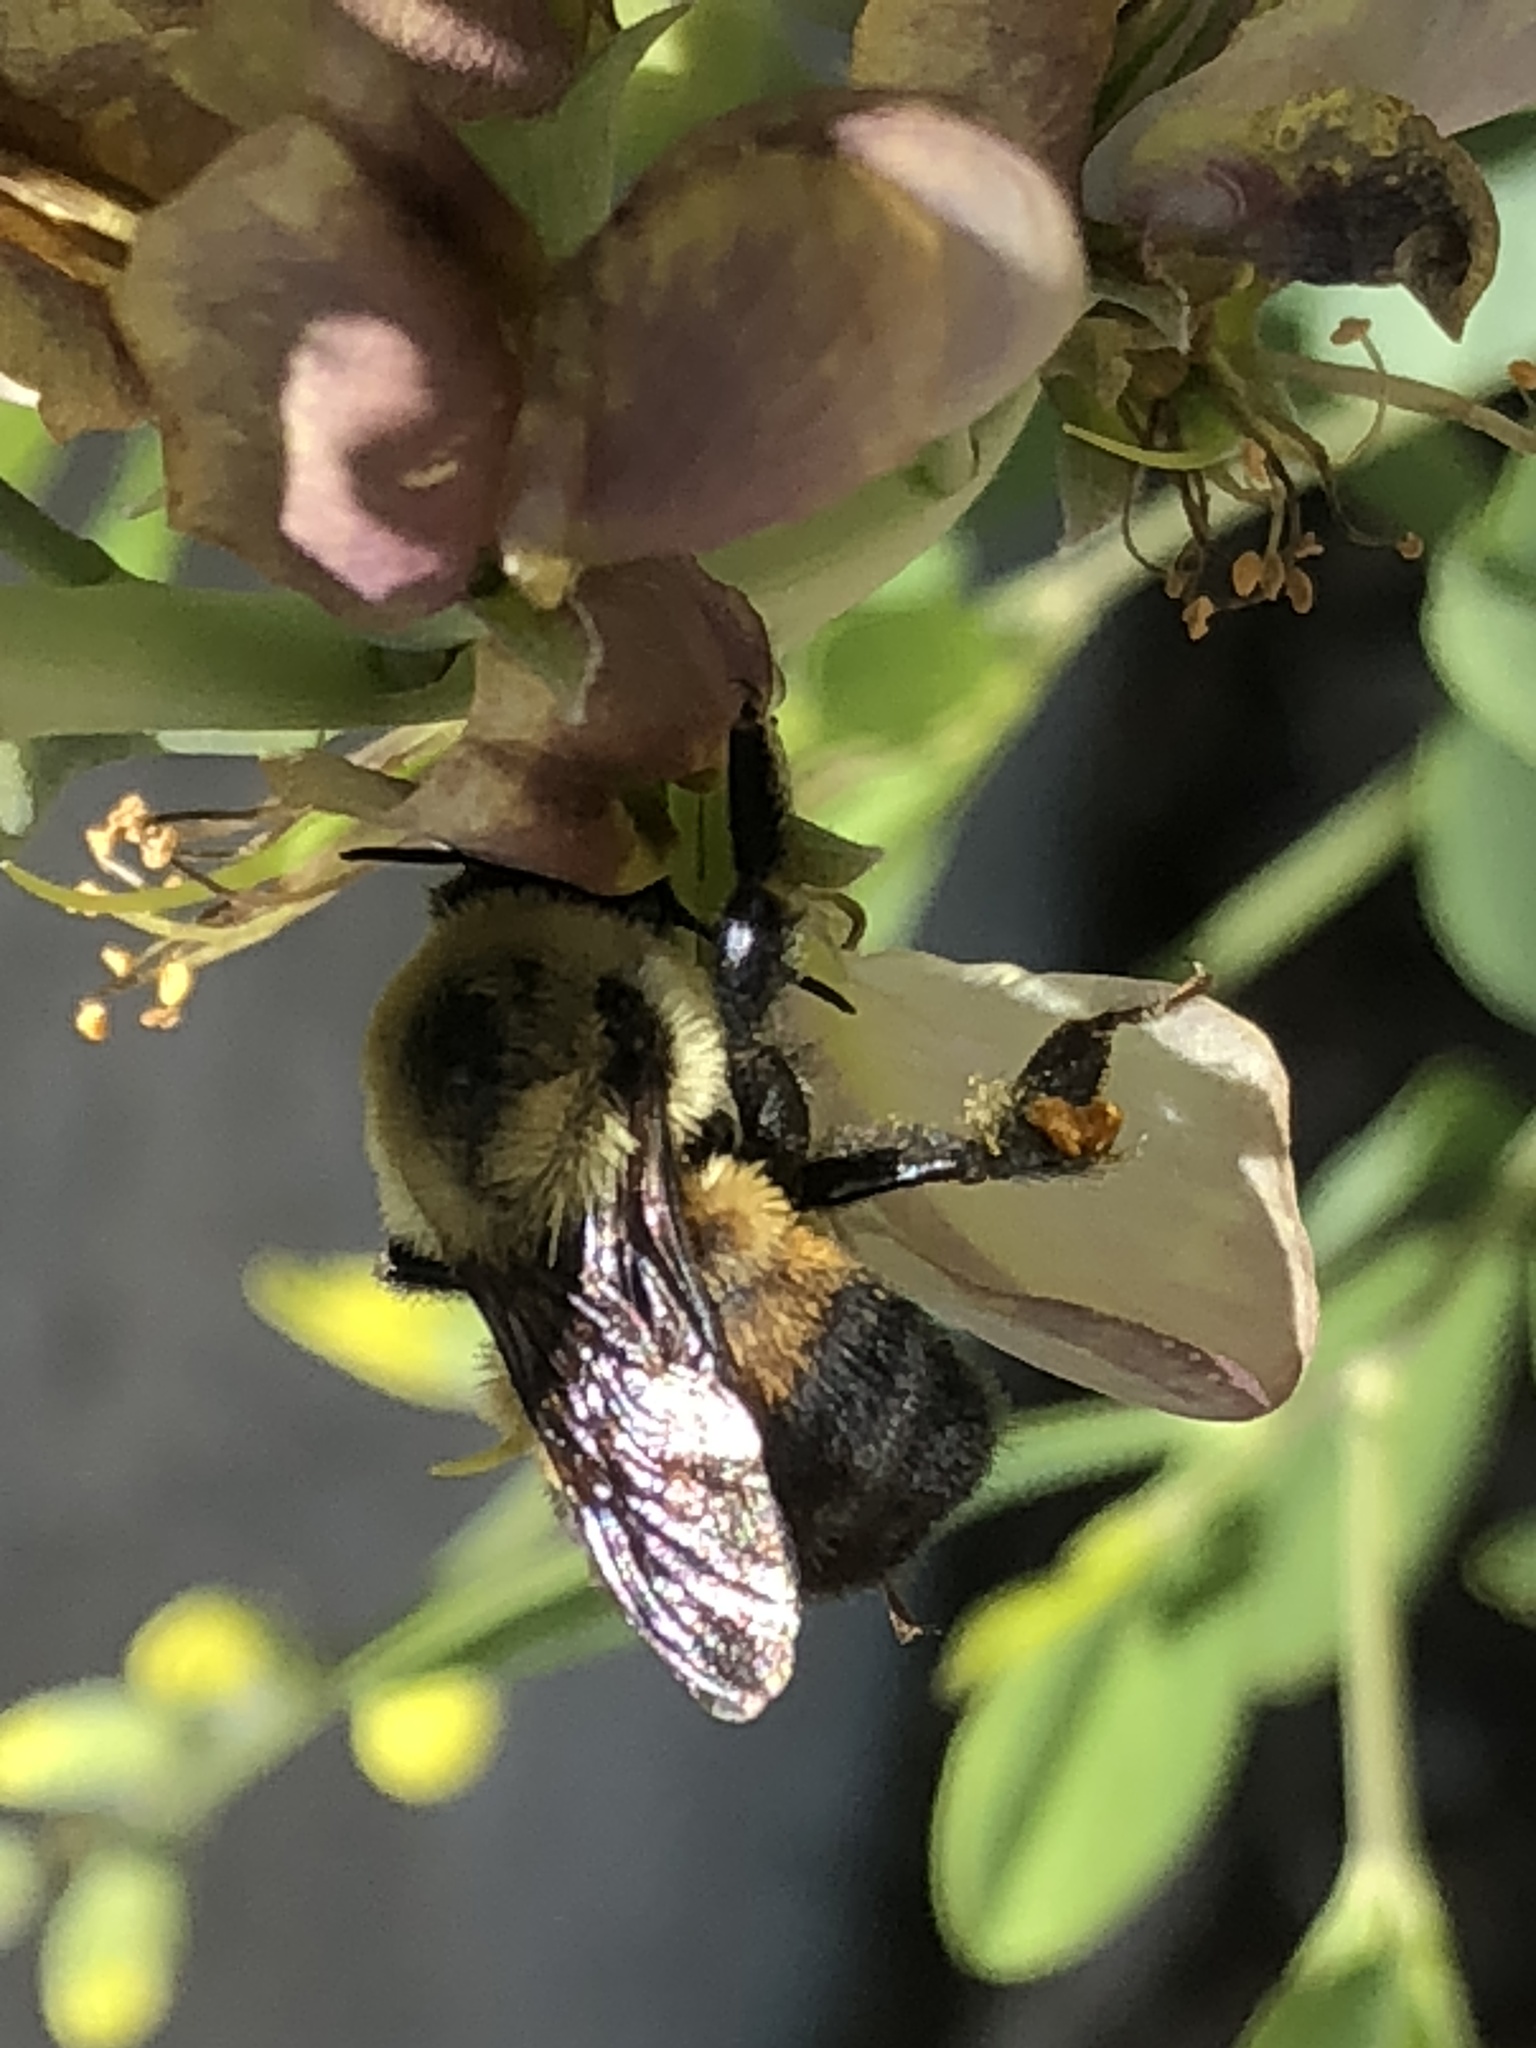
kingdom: Animalia
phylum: Arthropoda
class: Insecta
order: Hymenoptera
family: Apidae
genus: Bombus
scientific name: Bombus griseocollis
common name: Brown-belted bumble bee
